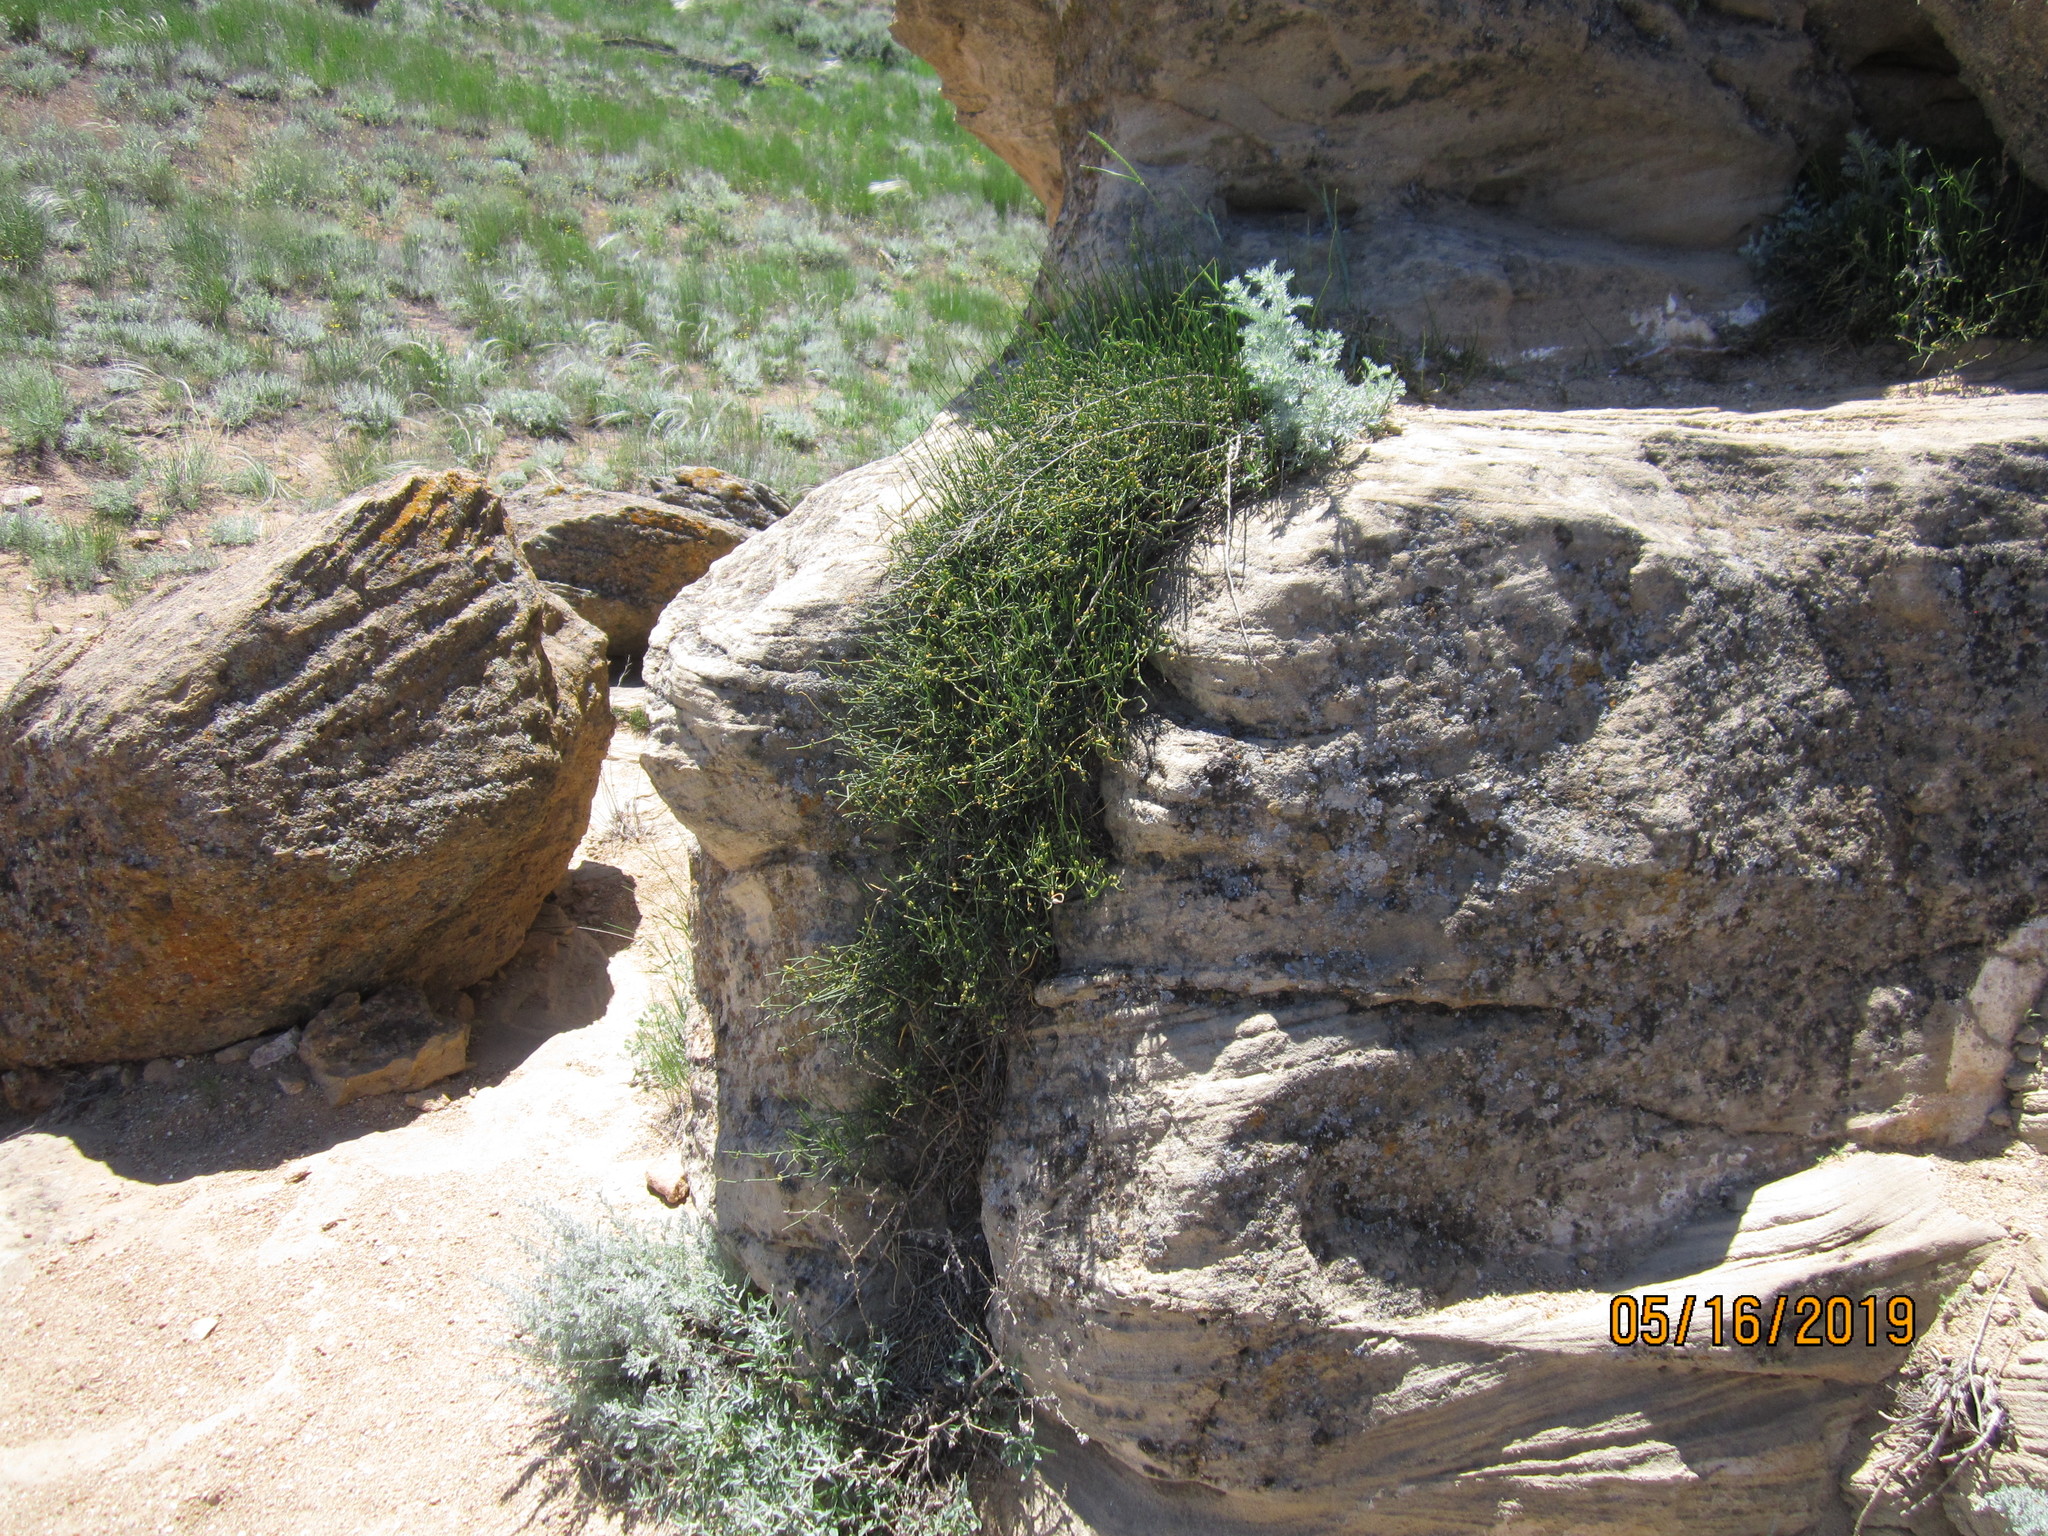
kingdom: Plantae
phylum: Tracheophyta
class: Gnetopsida
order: Ephedrales
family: Ephedraceae
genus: Ephedra
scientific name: Ephedra distachya
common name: Sea grape
